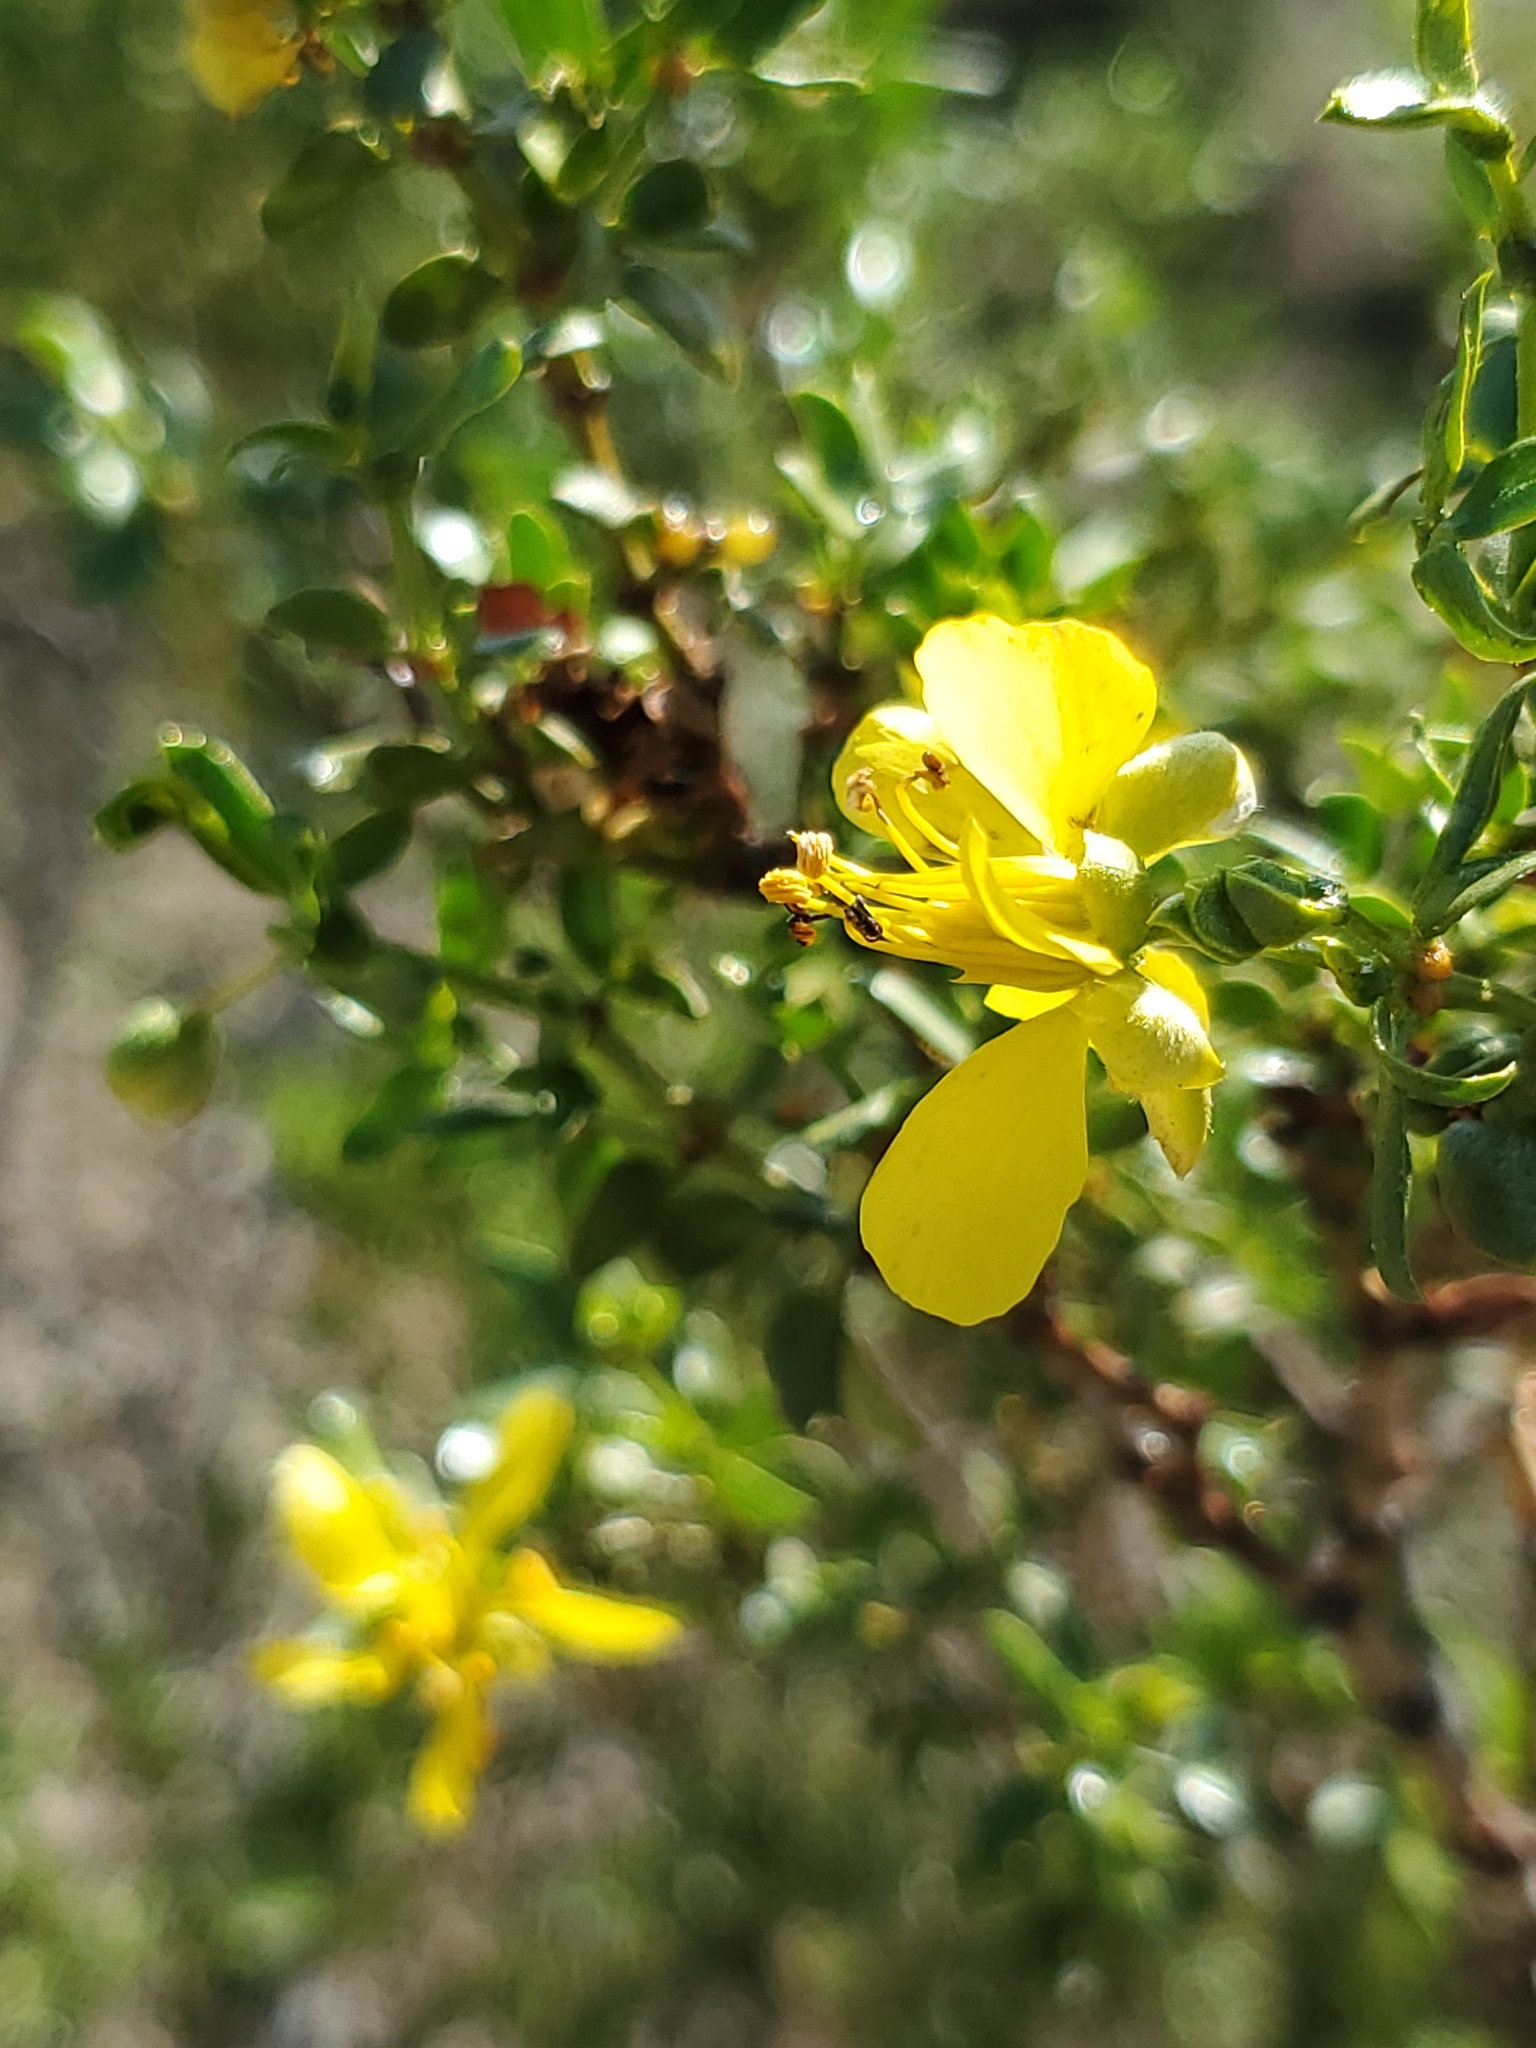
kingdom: Plantae
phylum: Tracheophyta
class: Magnoliopsida
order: Zygophyllales
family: Zygophyllaceae
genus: Larrea
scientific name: Larrea tridentata
